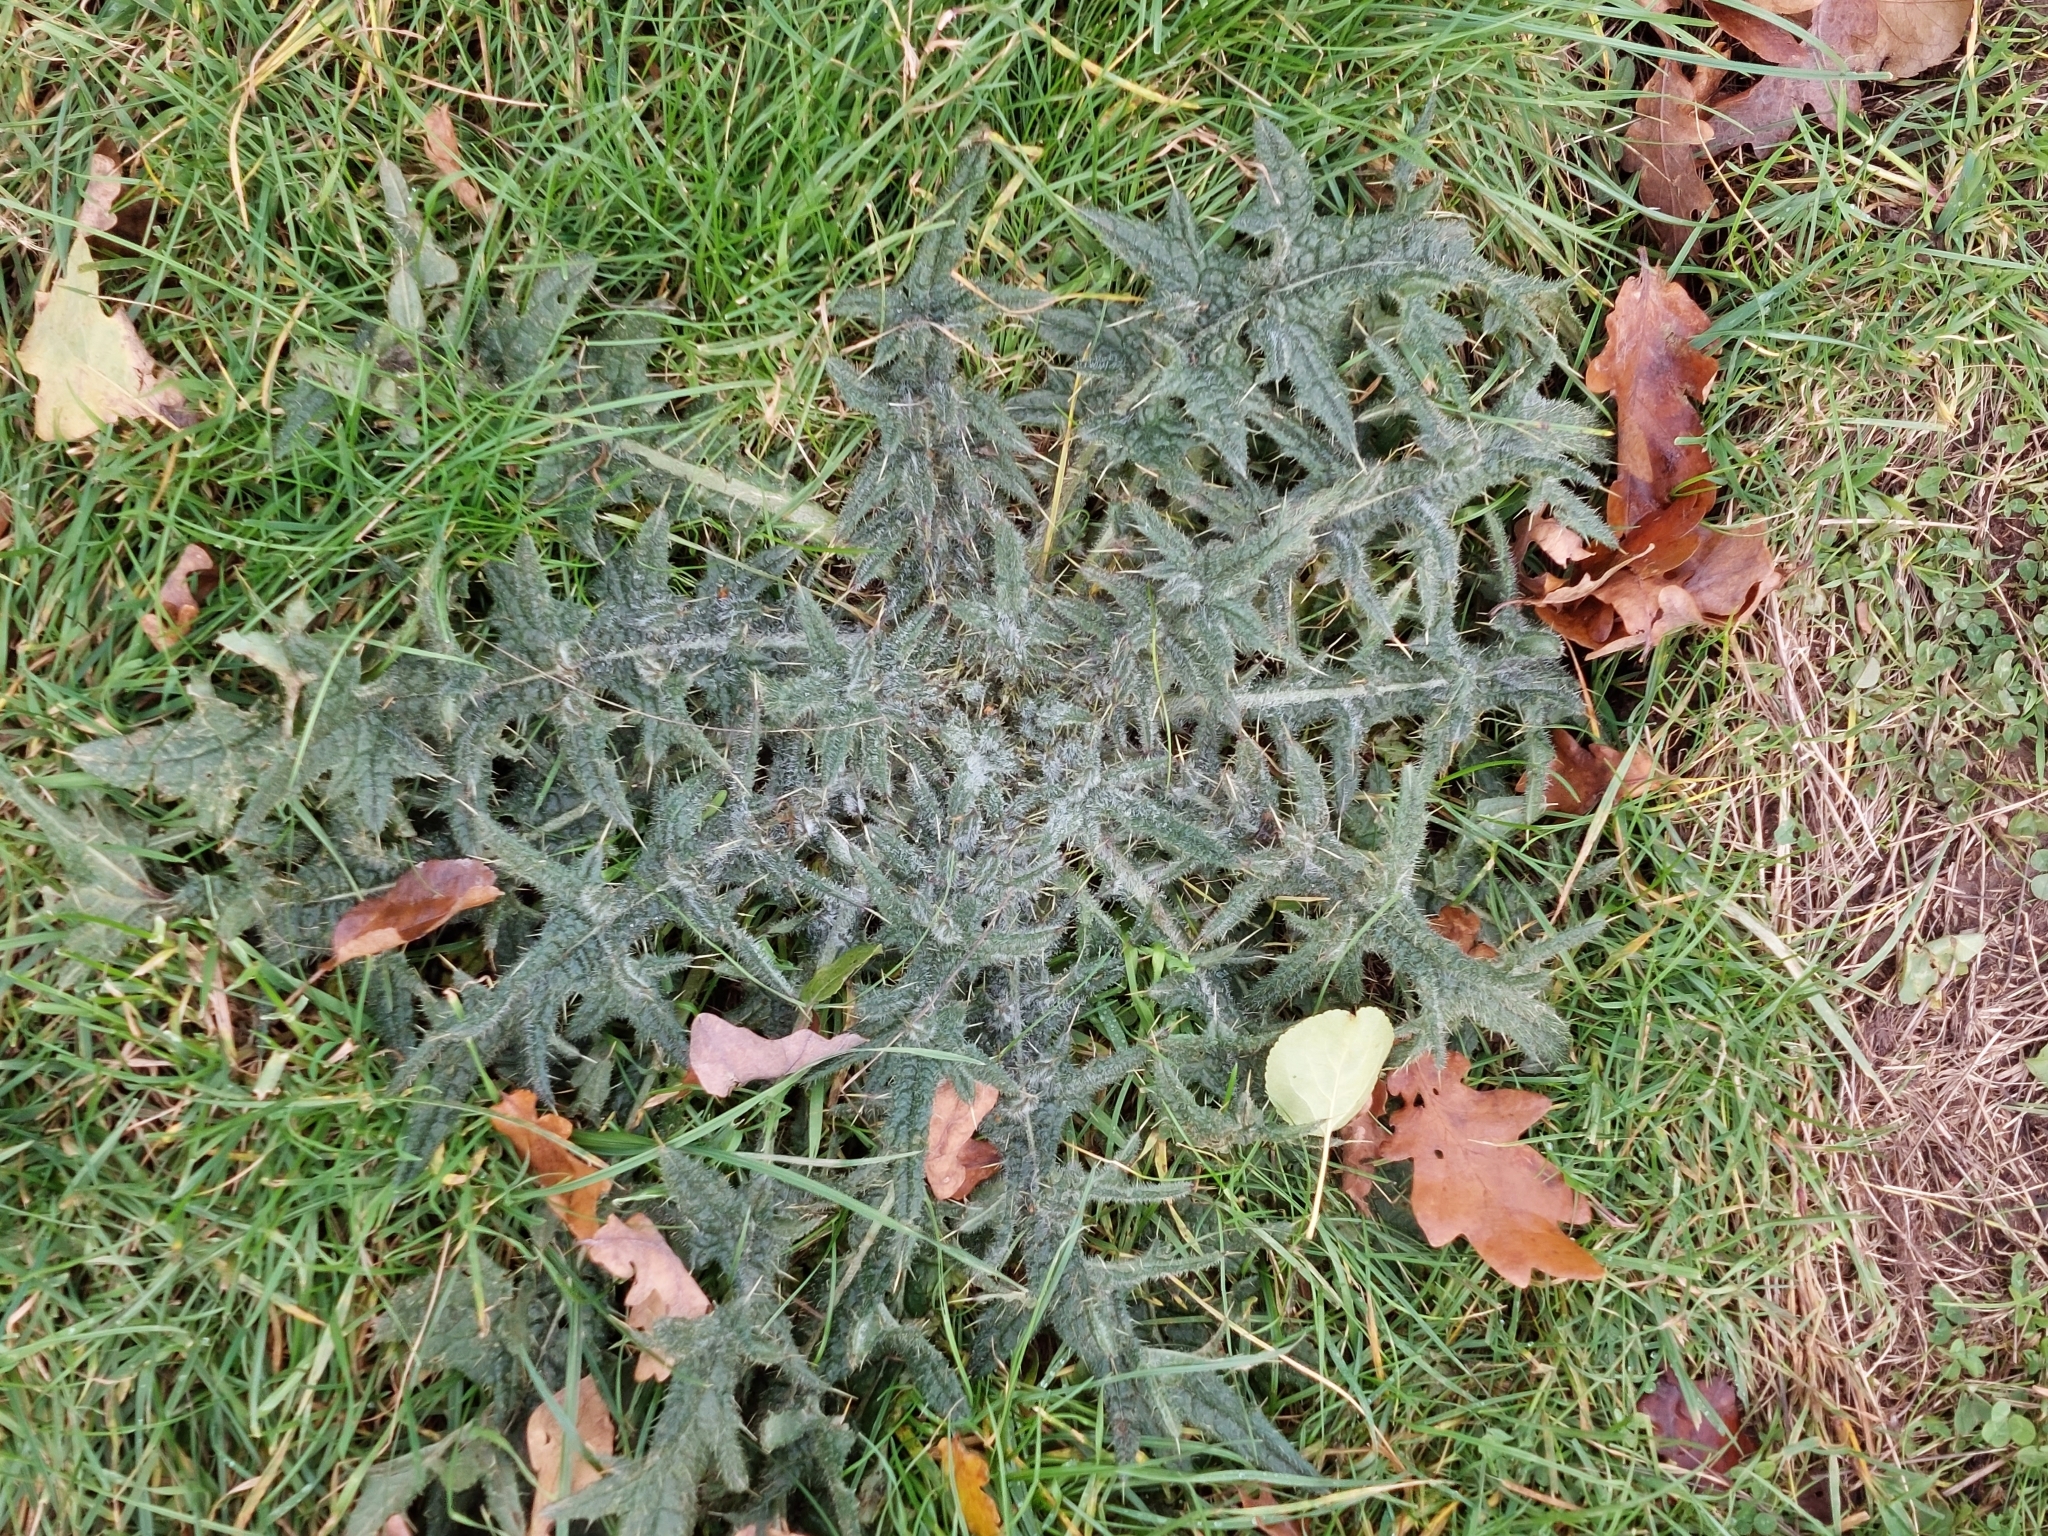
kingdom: Plantae
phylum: Tracheophyta
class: Magnoliopsida
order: Asterales
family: Asteraceae
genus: Cirsium
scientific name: Cirsium vulgare
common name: Bull thistle
